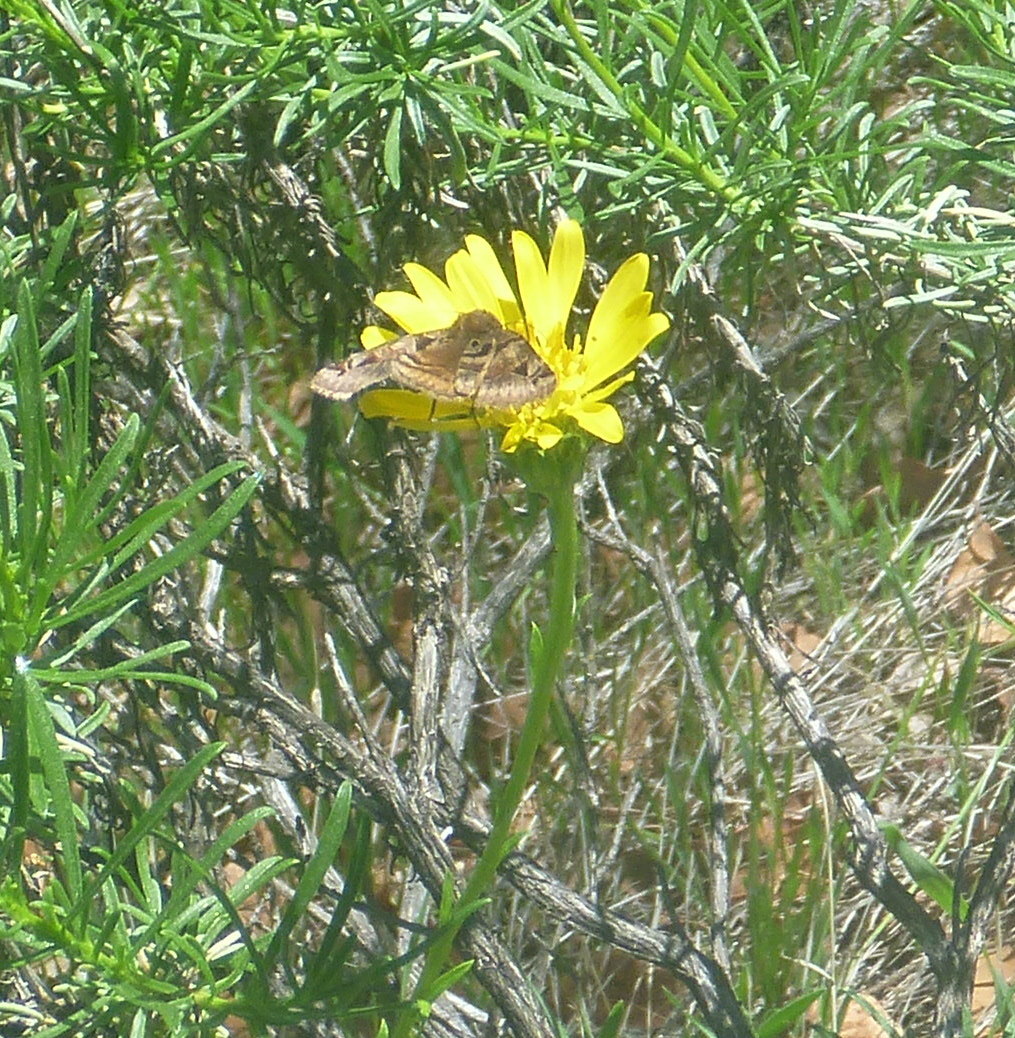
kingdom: Animalia
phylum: Arthropoda
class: Insecta
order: Lepidoptera
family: Erebidae
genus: Euclidia
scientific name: Euclidia ardita
